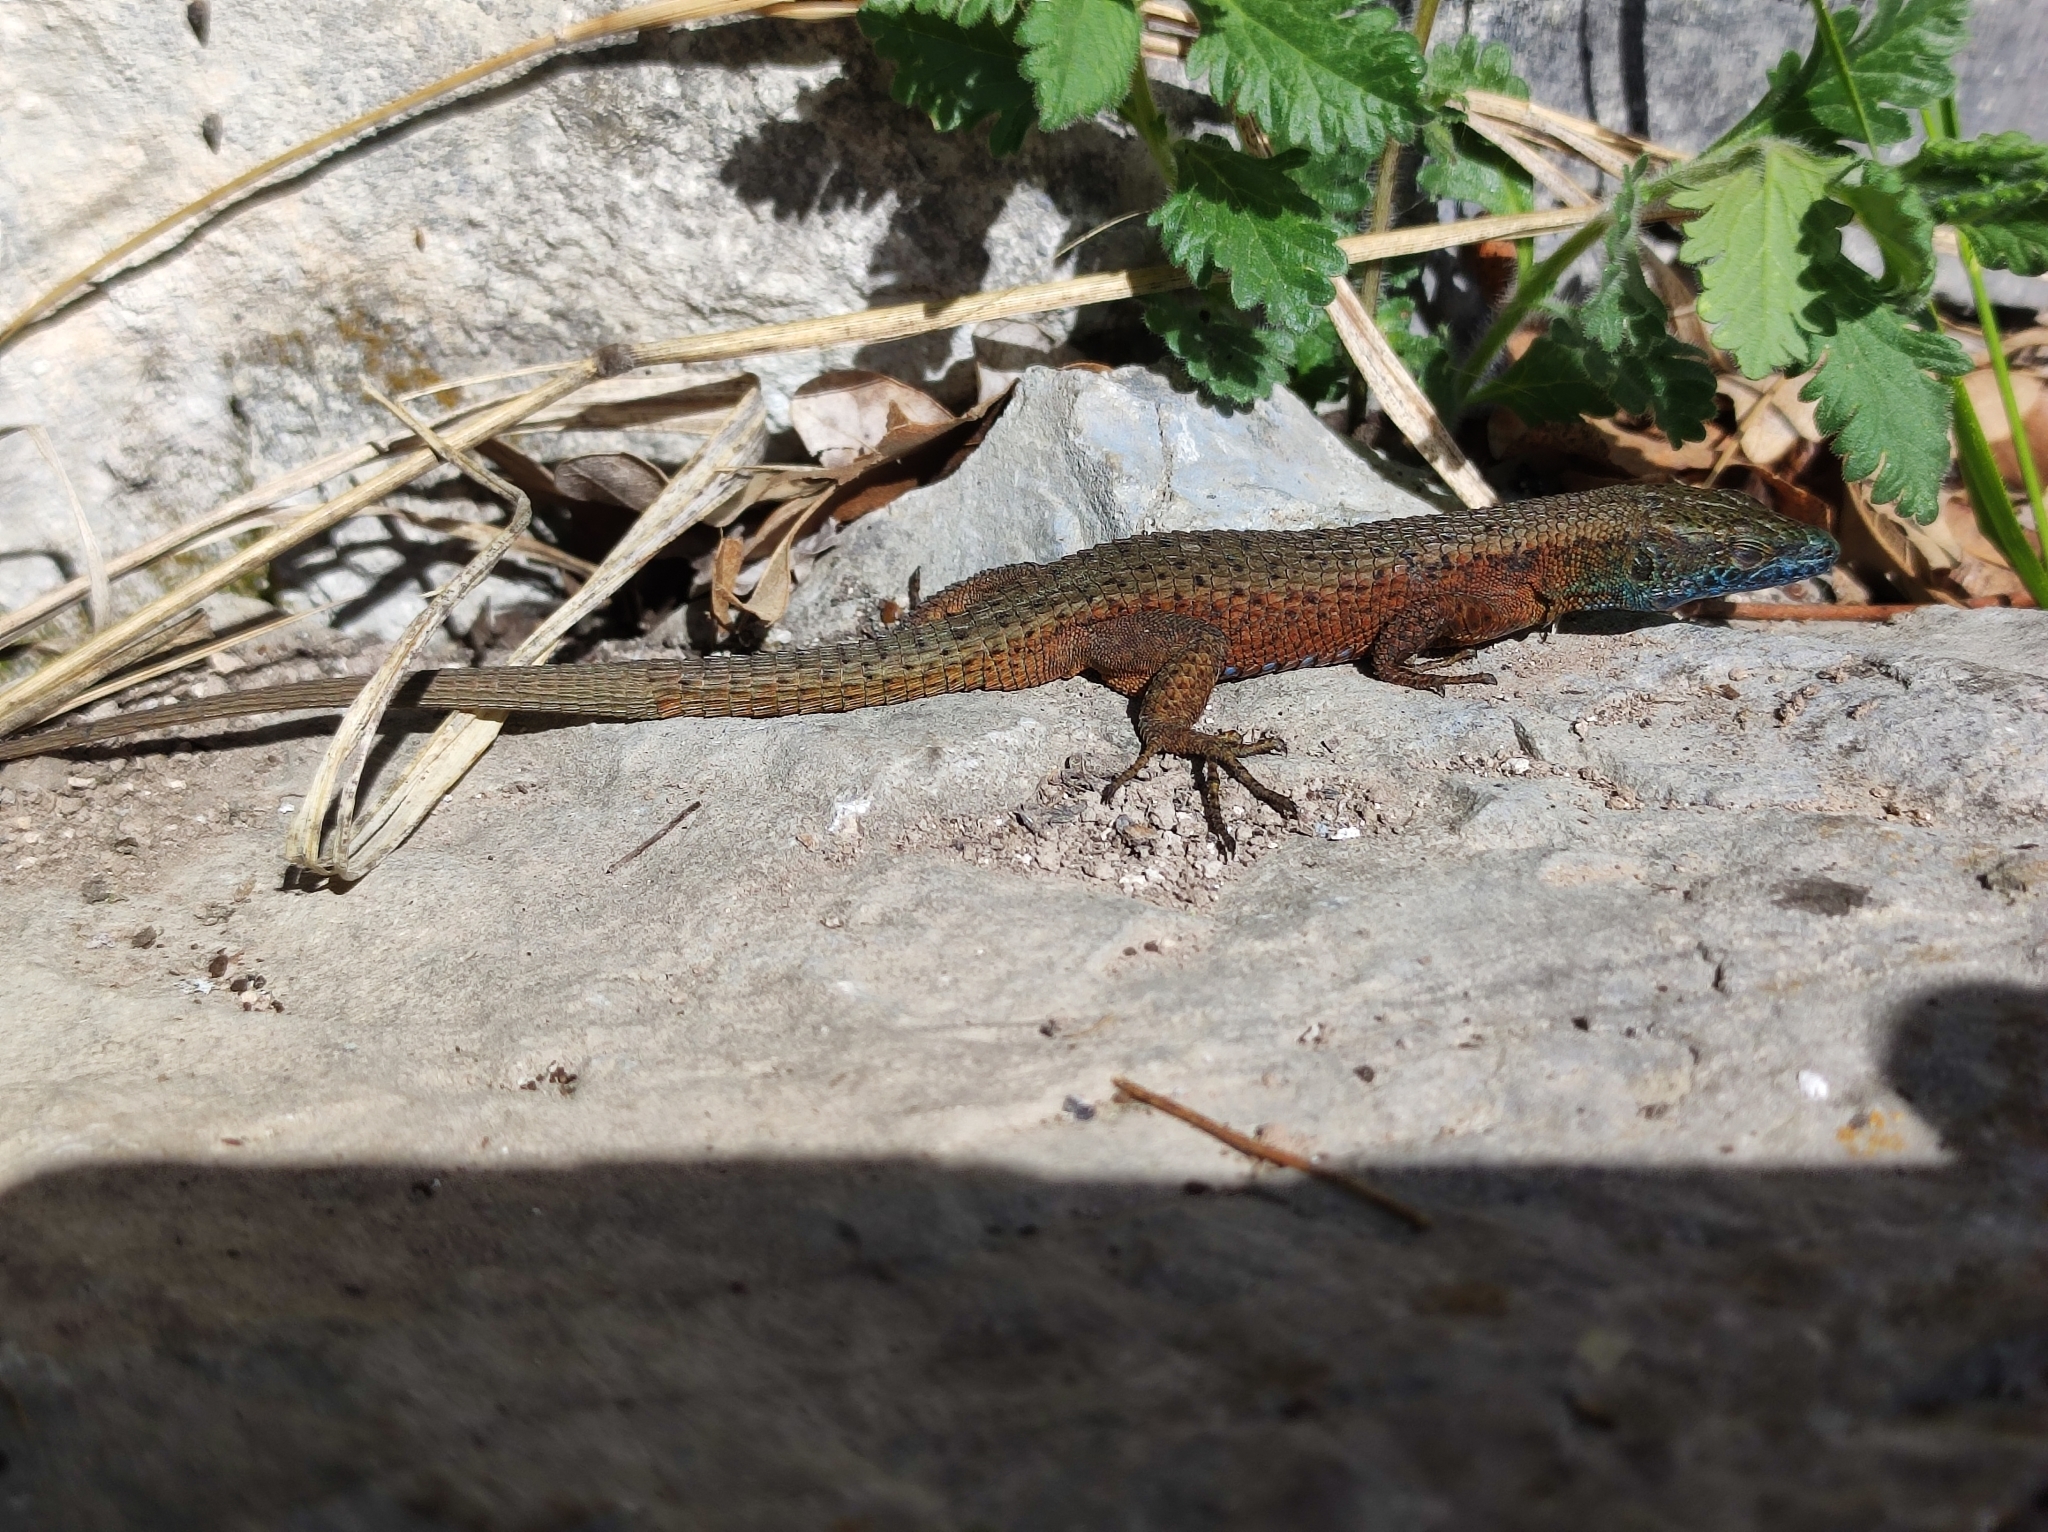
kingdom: Animalia
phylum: Chordata
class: Squamata
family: Lacertidae
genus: Algyroides
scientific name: Algyroides nigropunctatus
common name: Blue-throated keeled lizard
